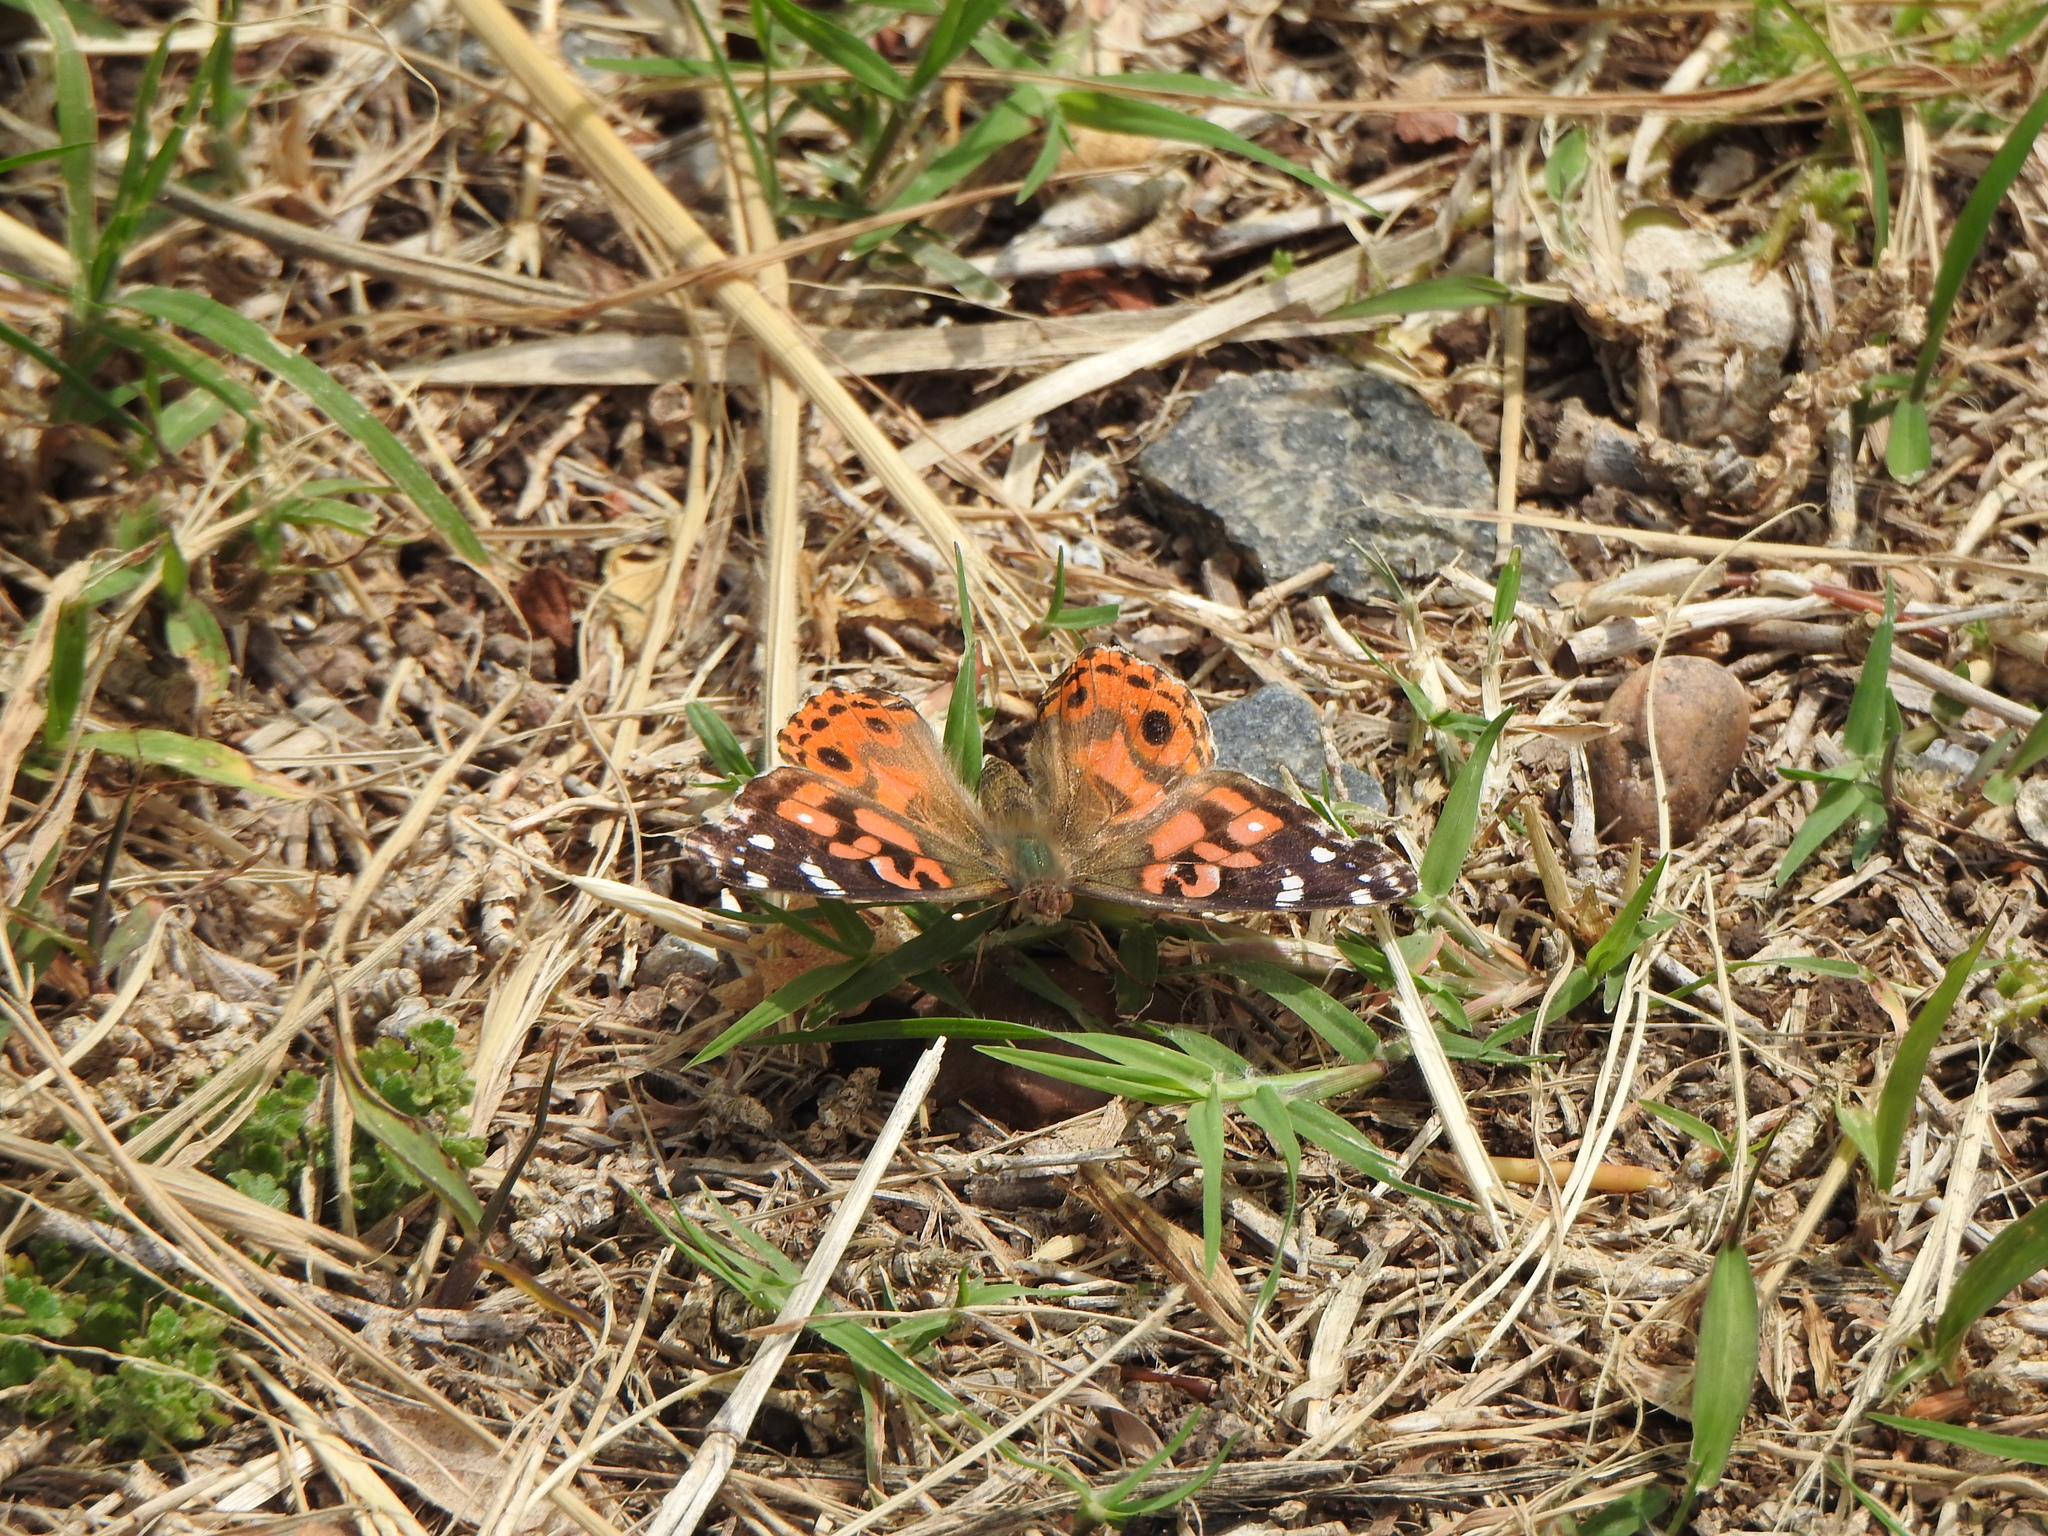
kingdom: Animalia
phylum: Arthropoda
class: Insecta
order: Lepidoptera
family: Nymphalidae
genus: Vanessa
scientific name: Vanessa braziliensis
